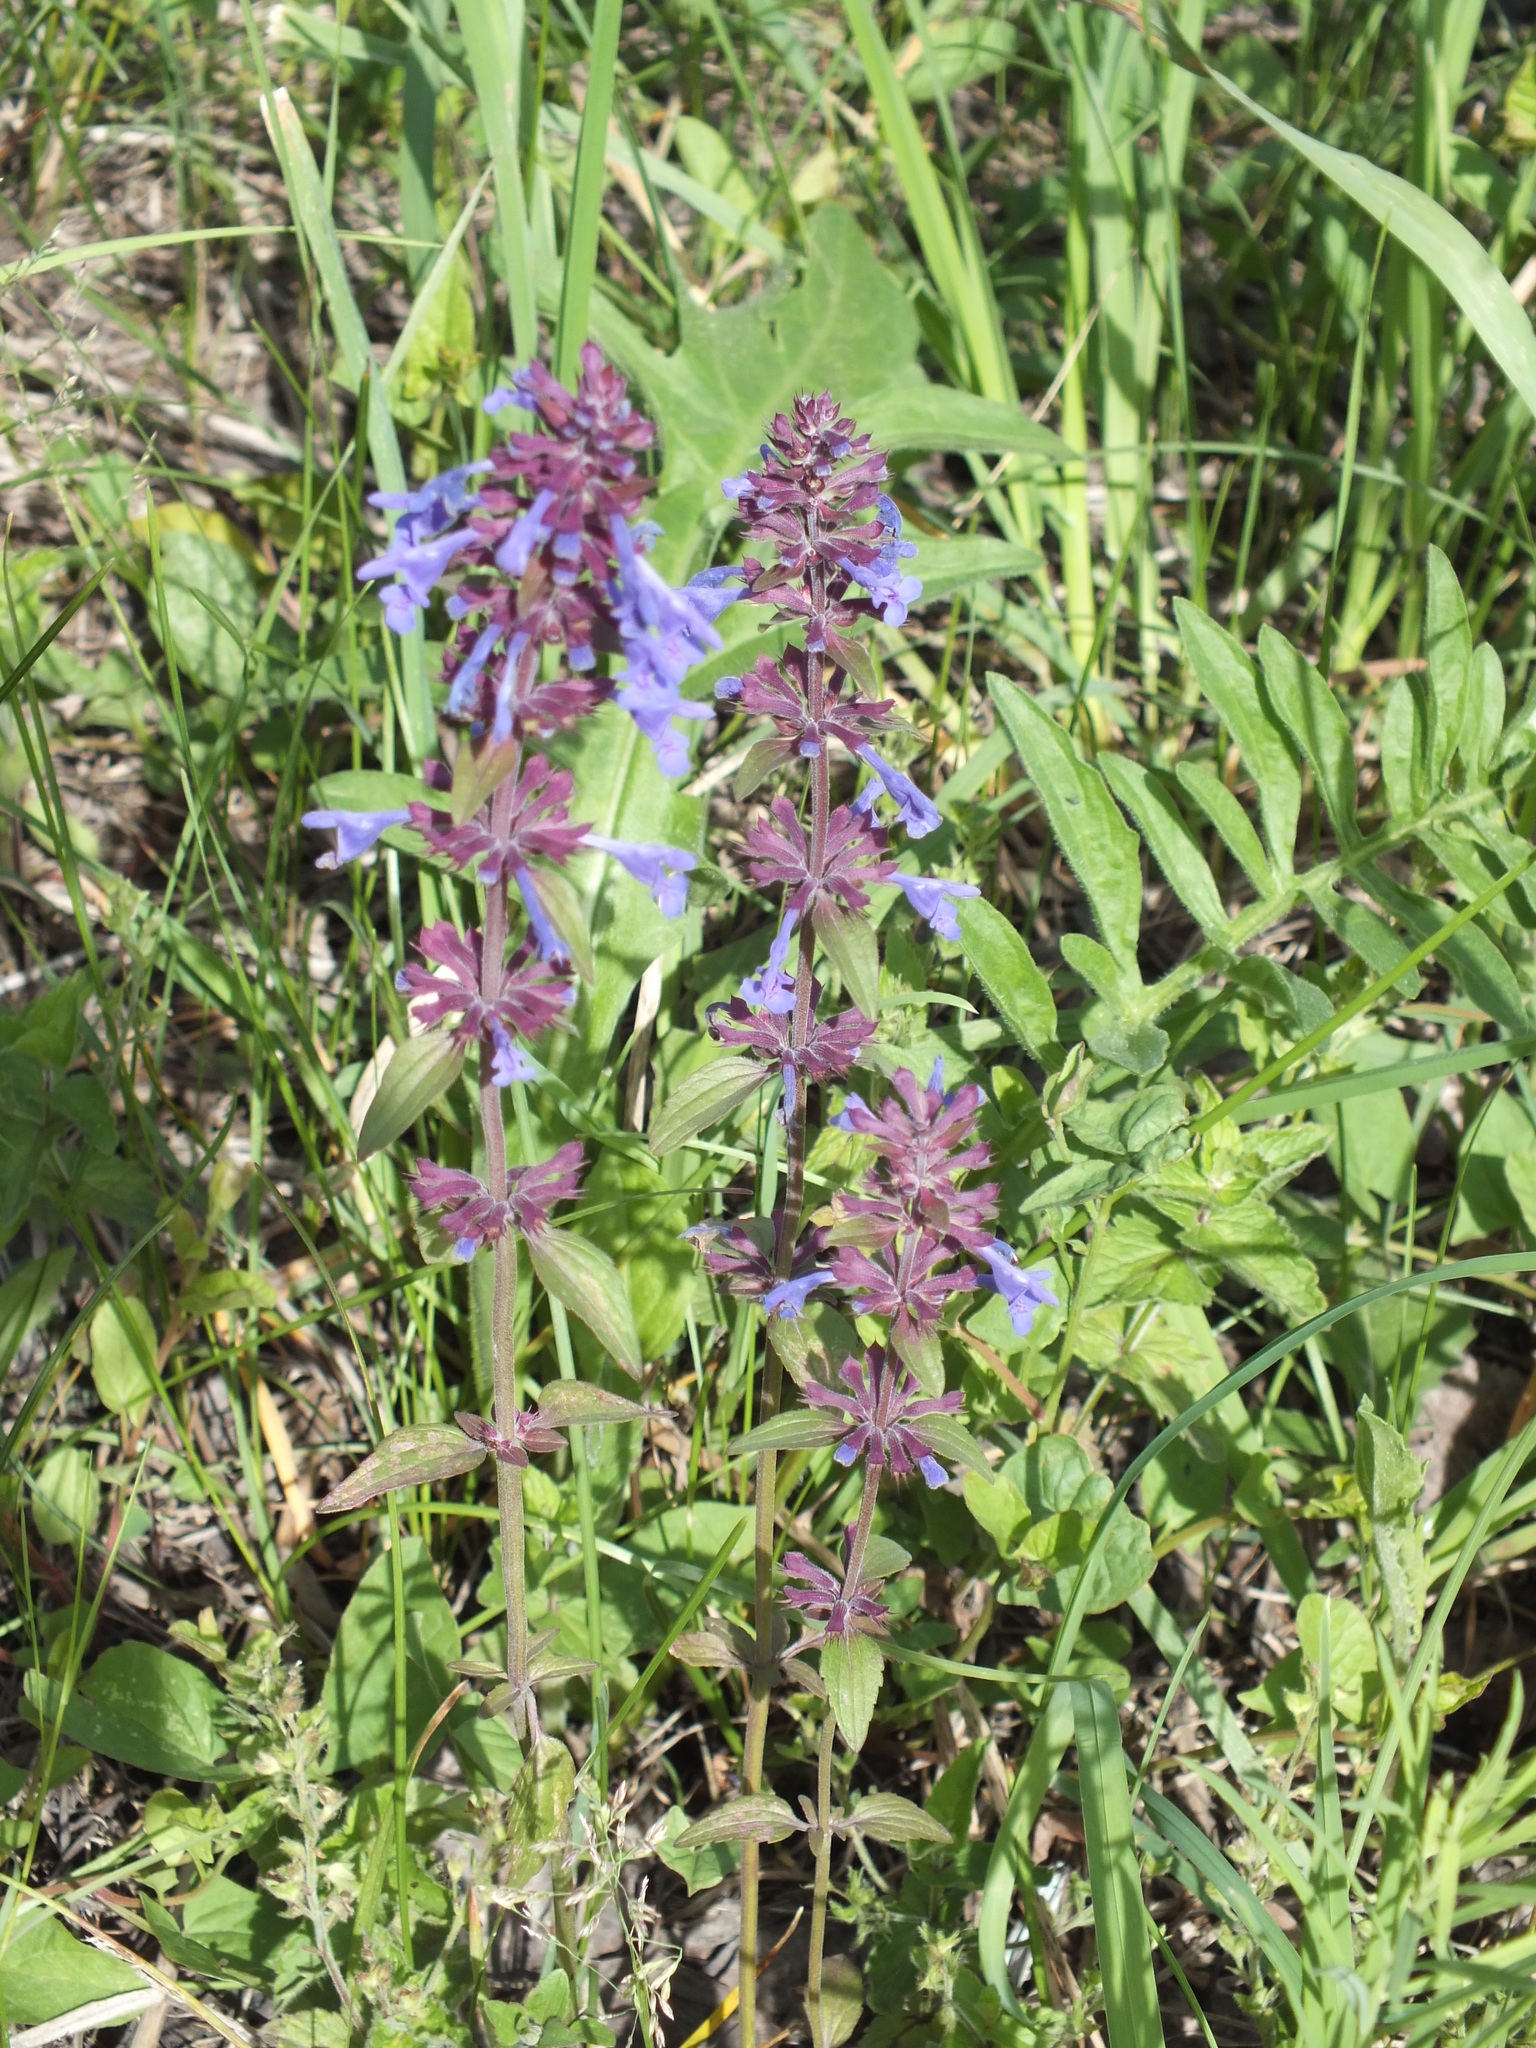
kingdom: Plantae
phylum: Tracheophyta
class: Magnoliopsida
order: Lamiales
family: Lamiaceae
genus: Dracocephalum
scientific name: Dracocephalum nutans
